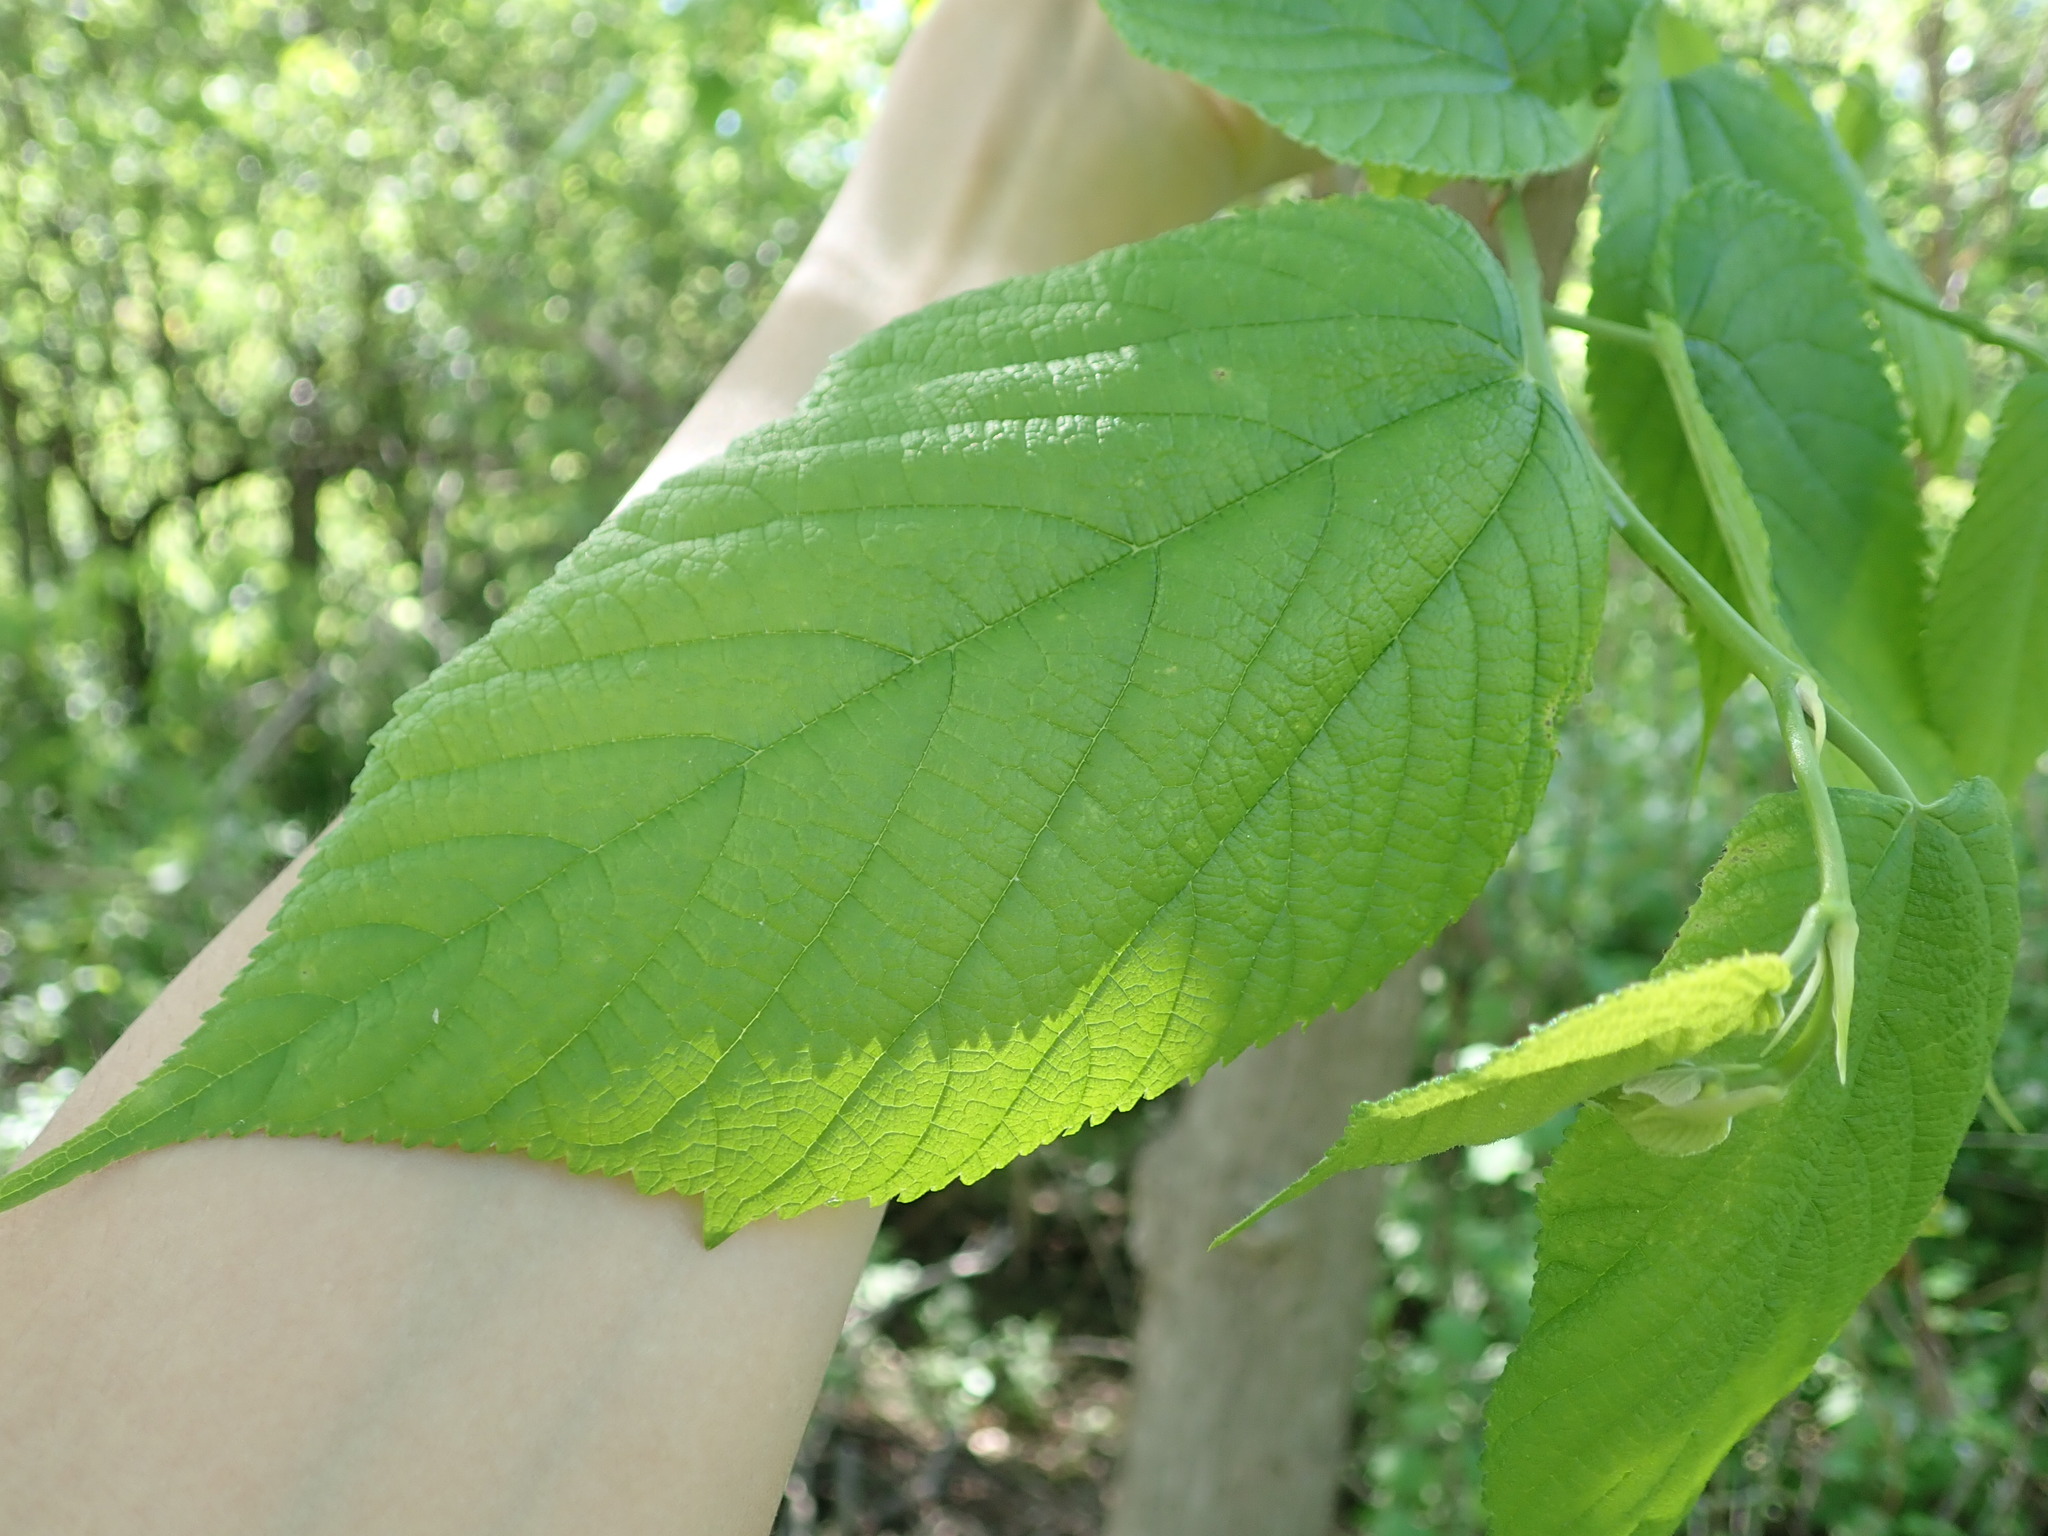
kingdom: Plantae
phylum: Tracheophyta
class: Magnoliopsida
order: Rosales
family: Cannabaceae
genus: Celtis
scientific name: Celtis occidentalis
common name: Common hackberry
